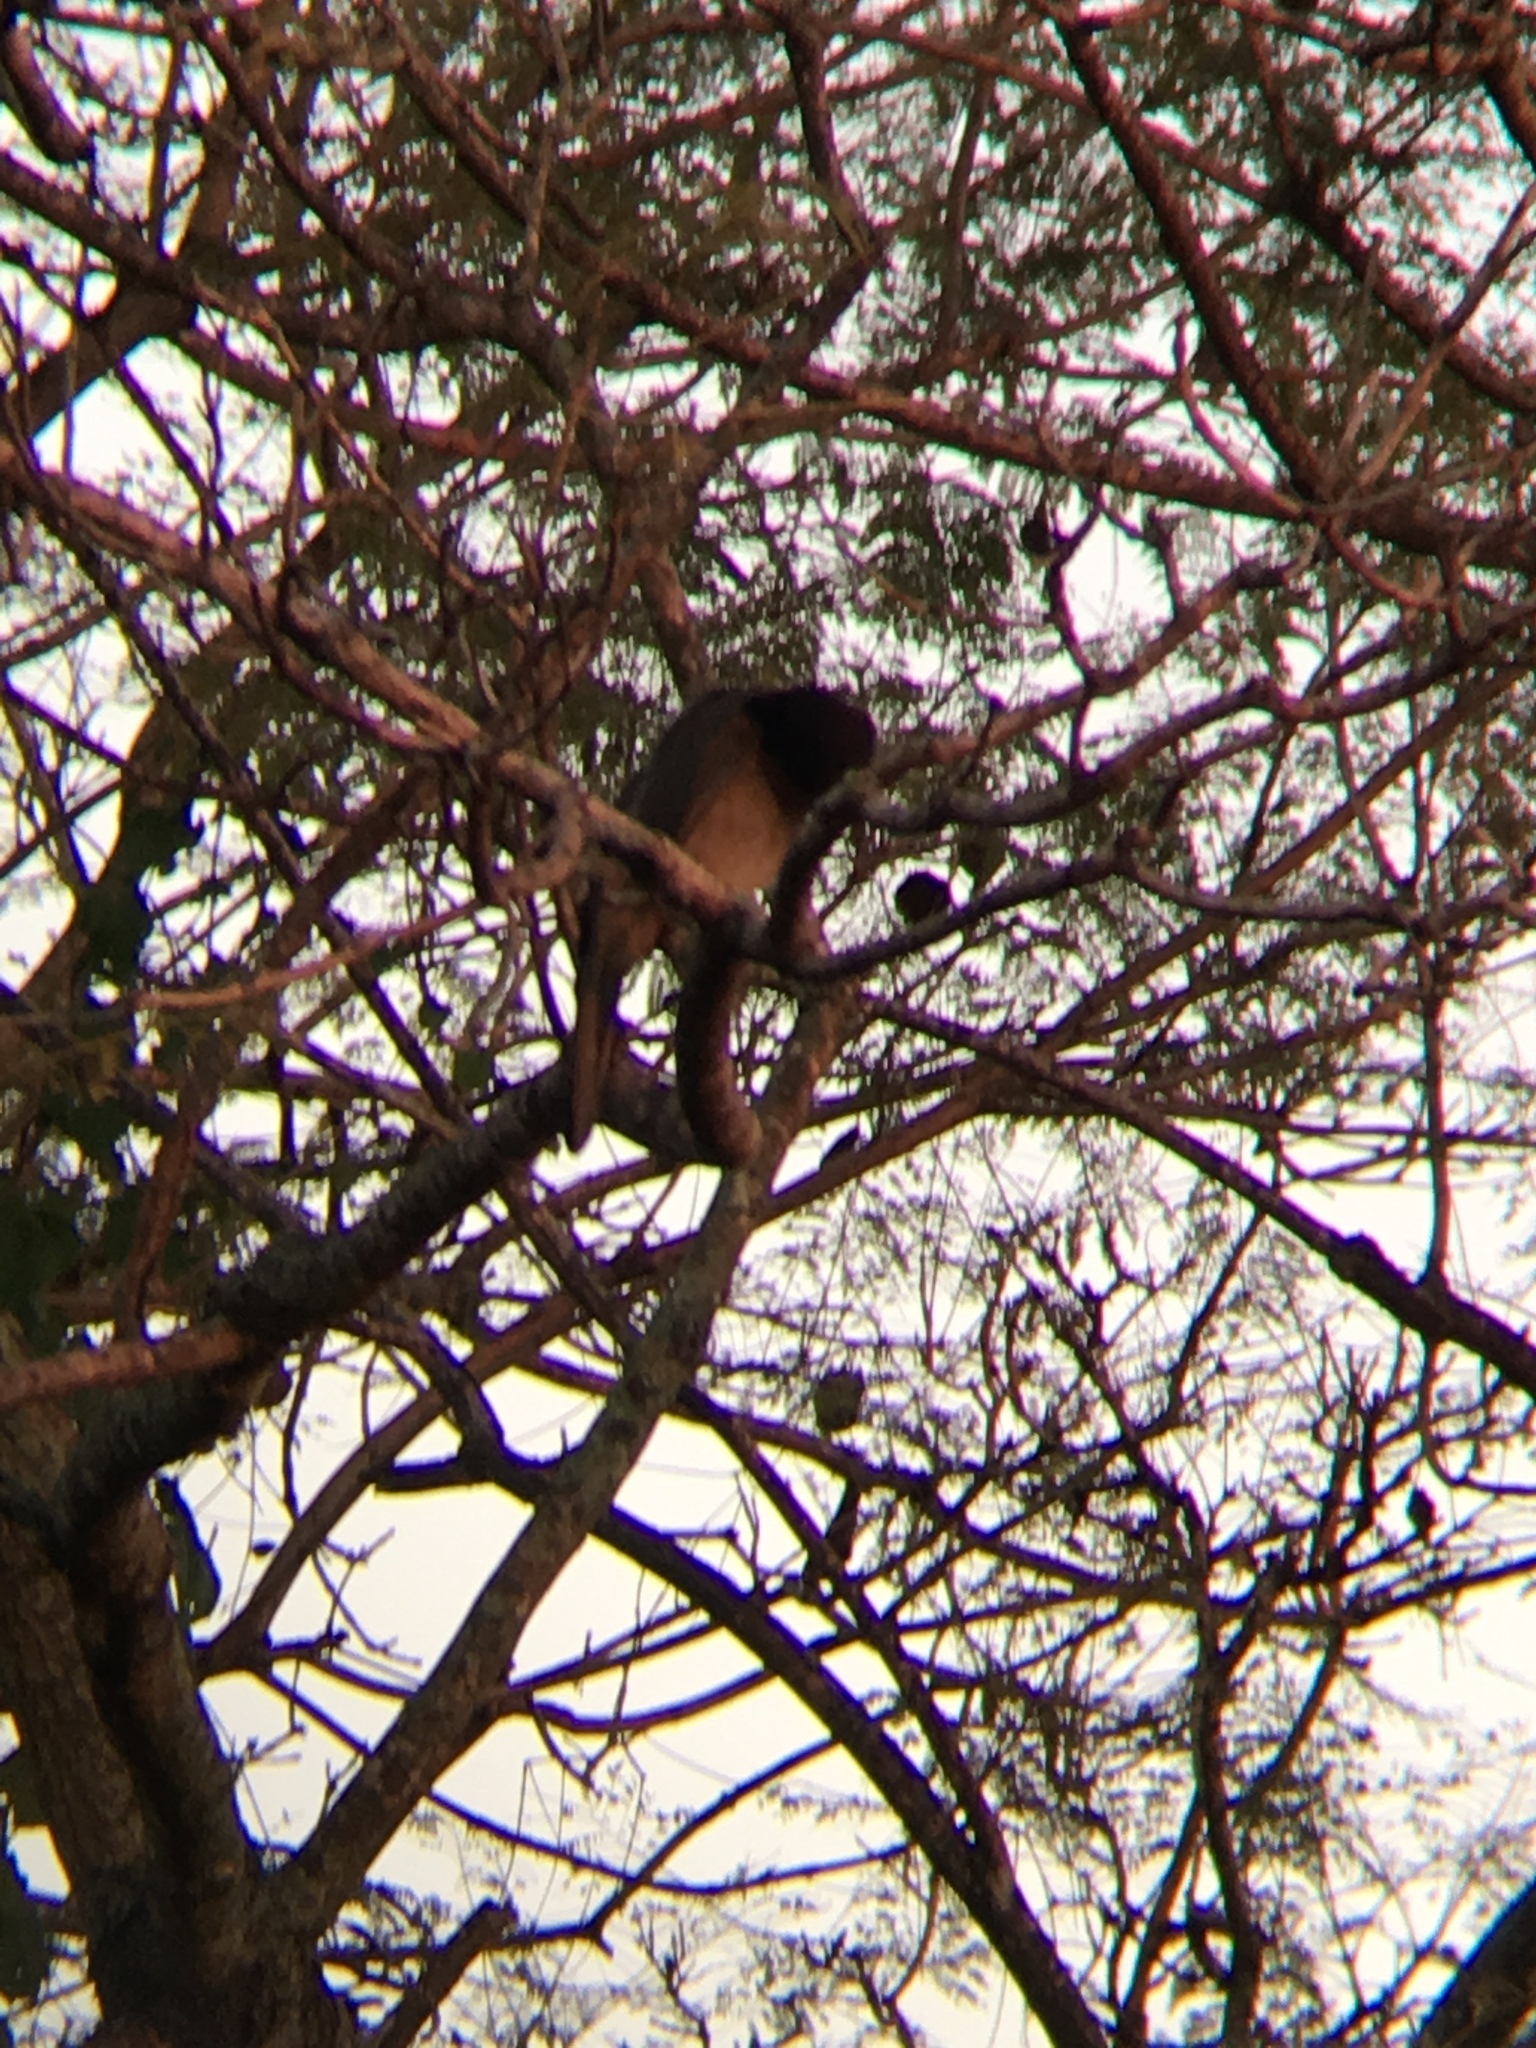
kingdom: Animalia
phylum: Chordata
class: Aves
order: Passeriformes
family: Corvidae
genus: Psilorhinus
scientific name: Psilorhinus morio
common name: Brown jay
